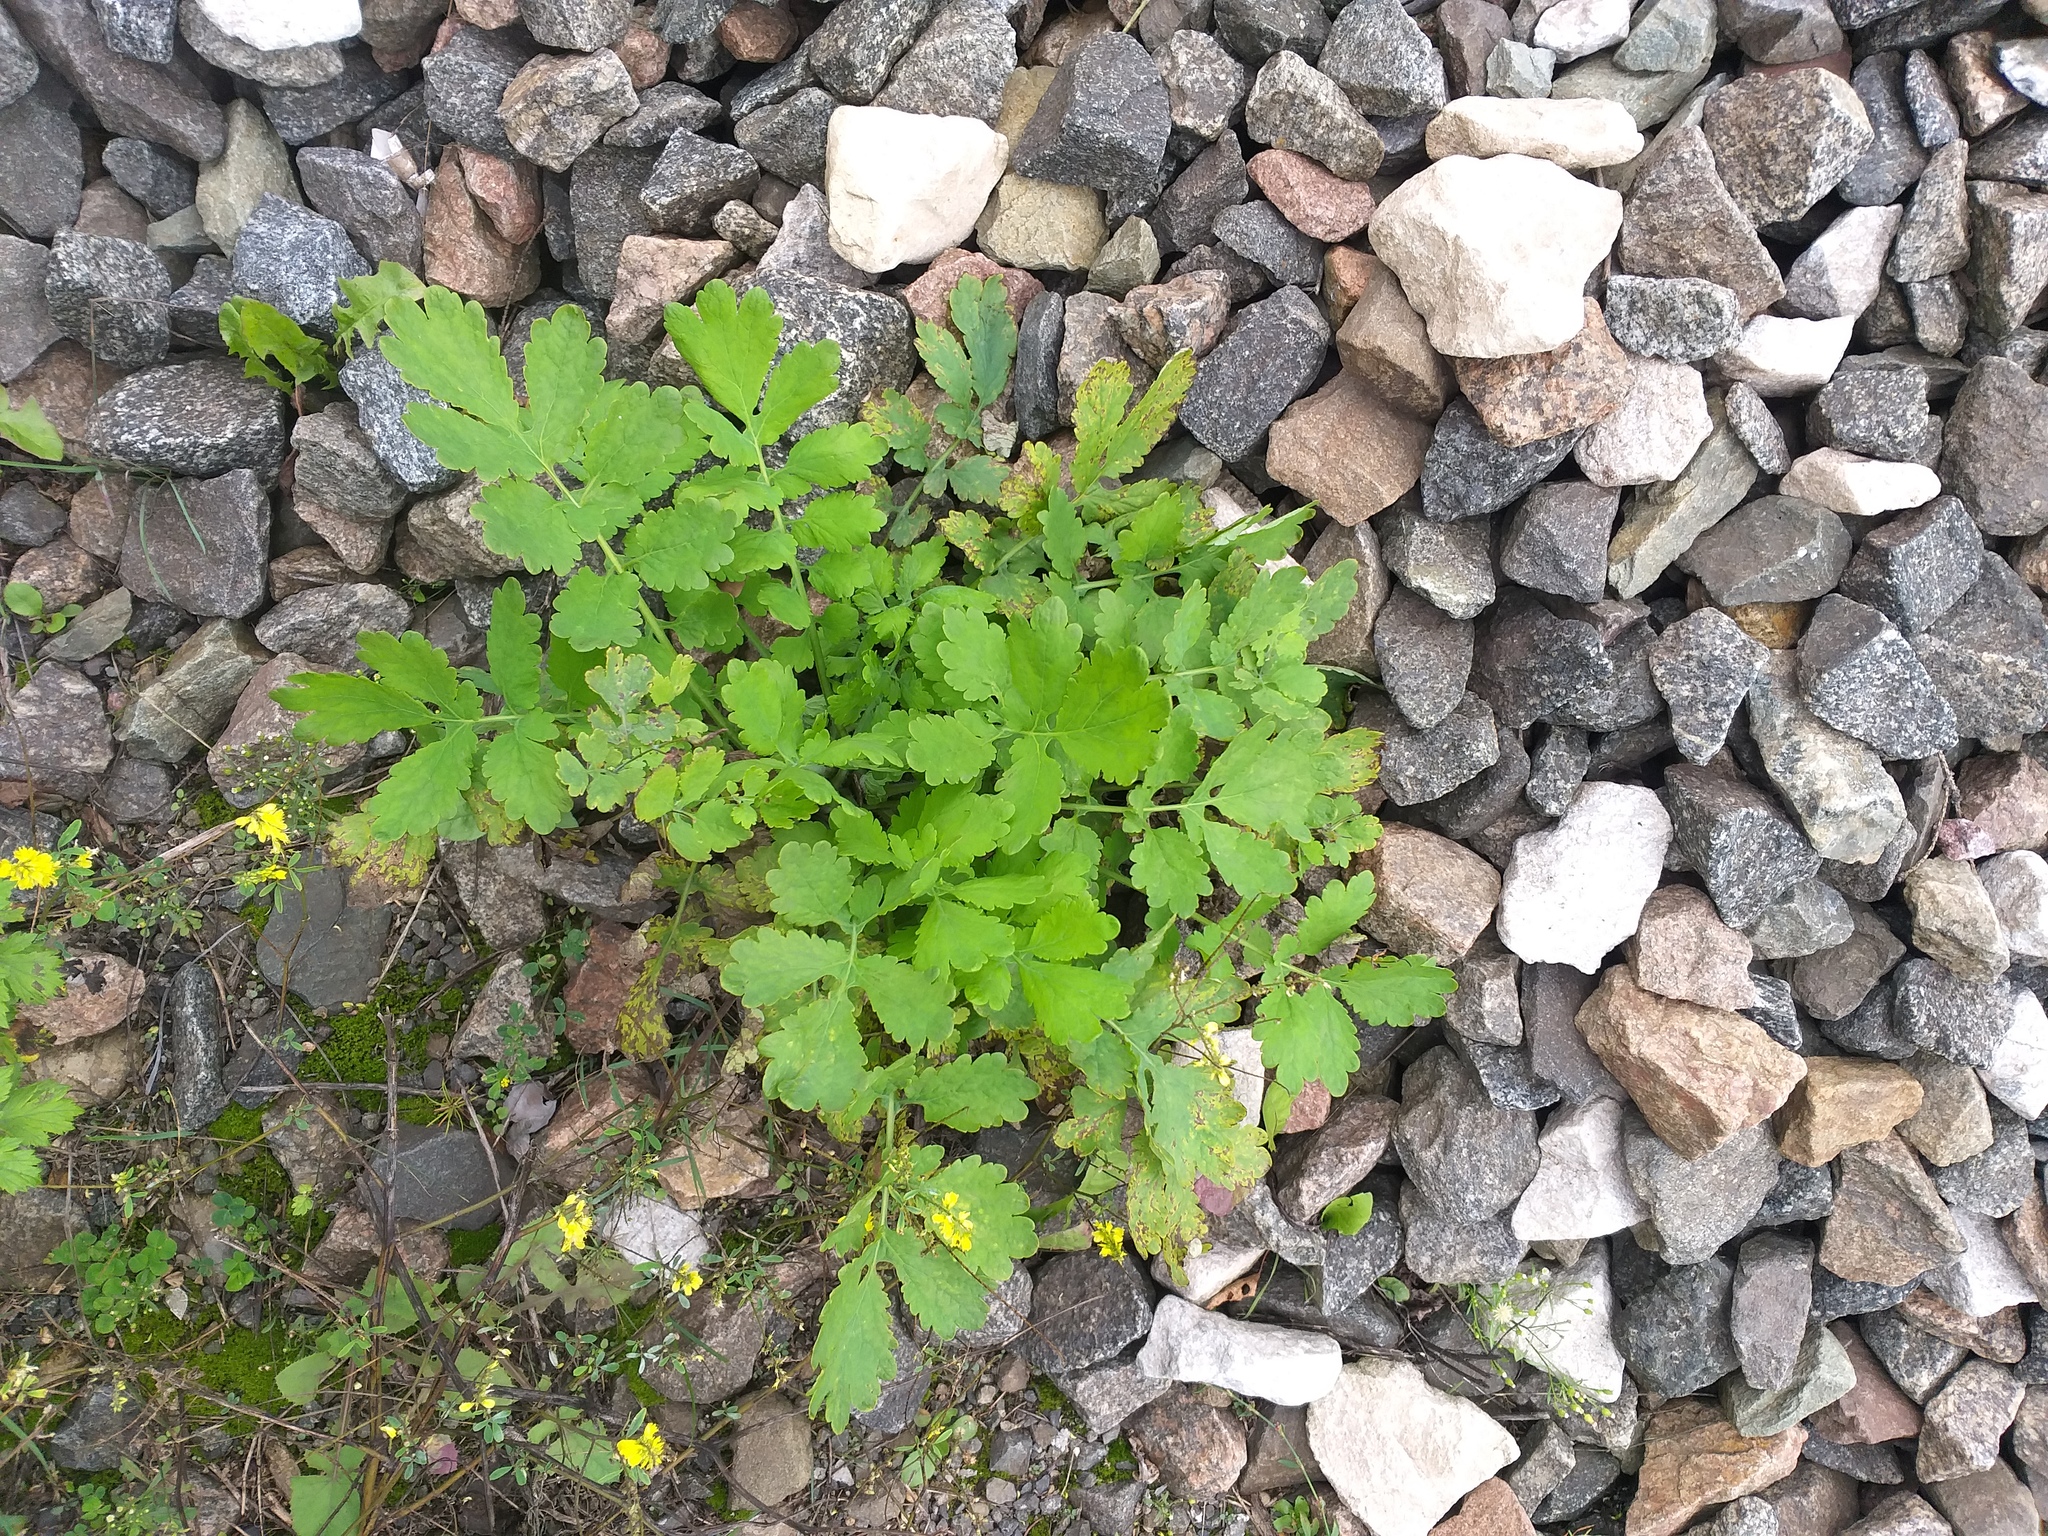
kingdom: Plantae
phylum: Tracheophyta
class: Magnoliopsida
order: Ranunculales
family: Papaveraceae
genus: Chelidonium
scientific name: Chelidonium majus
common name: Greater celandine
